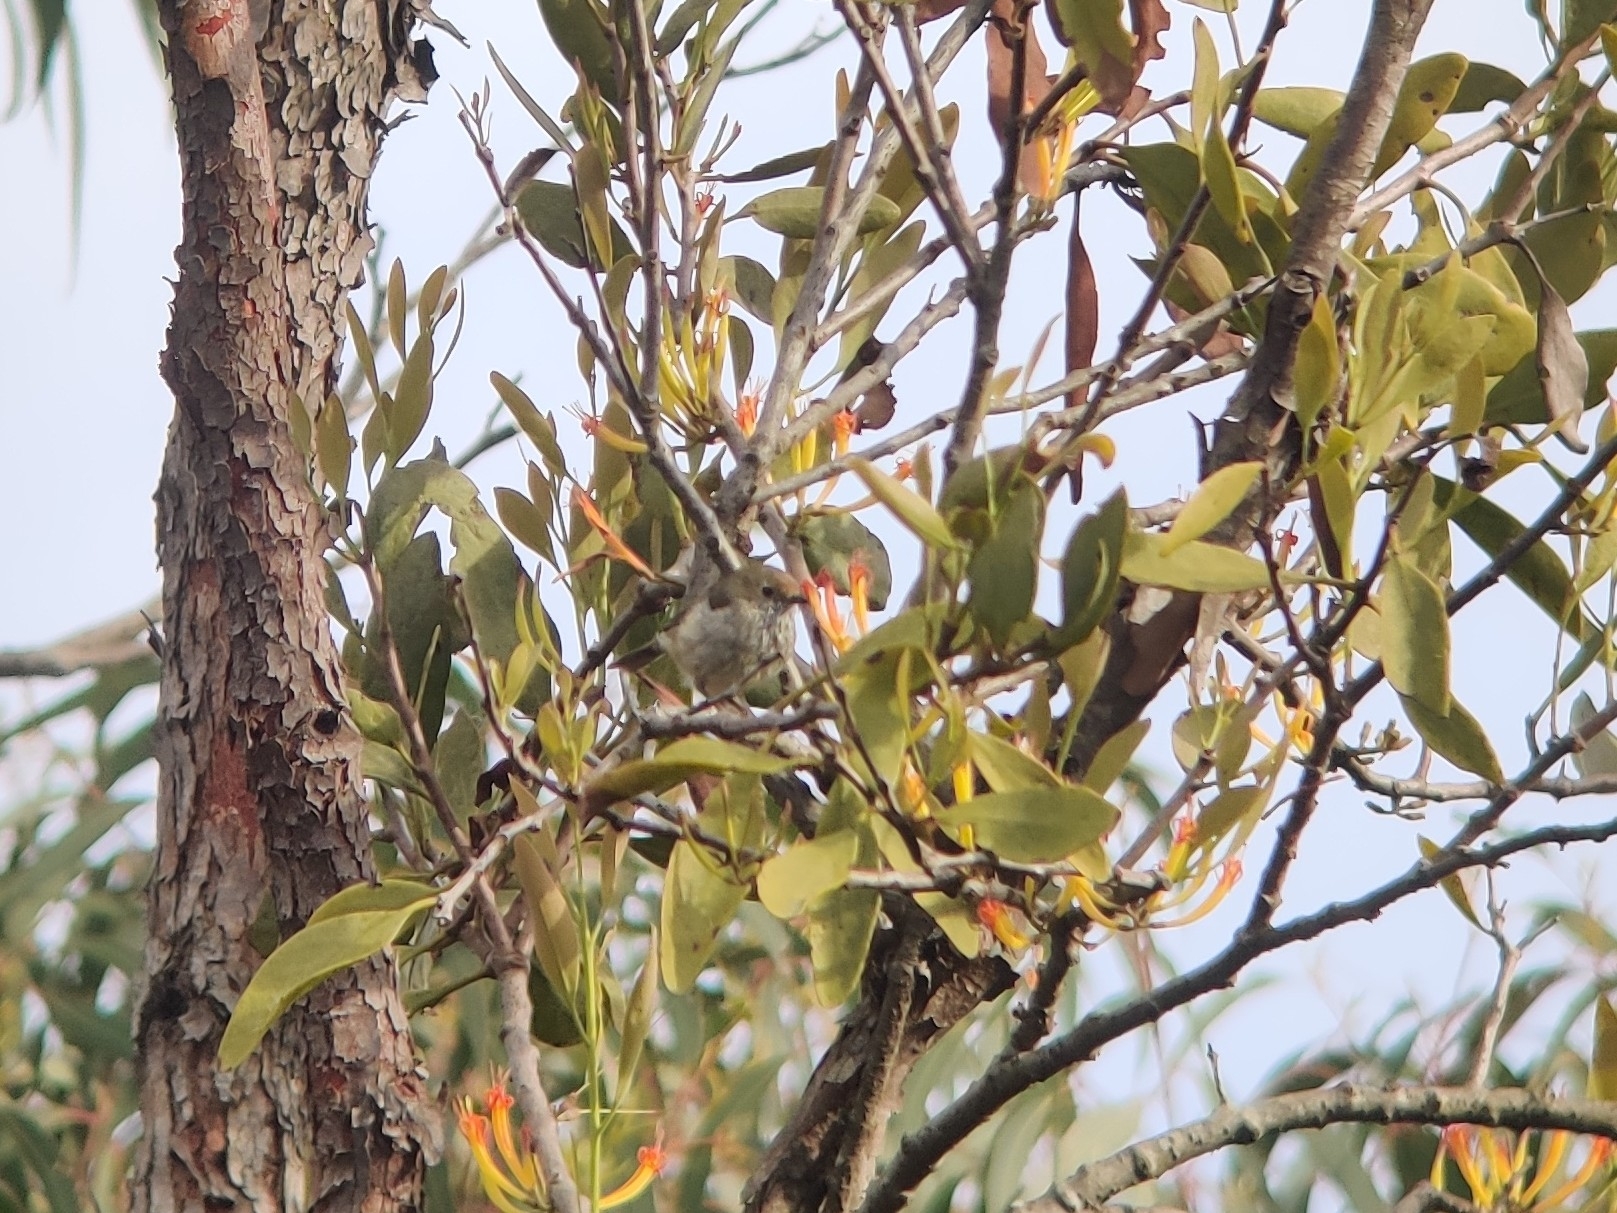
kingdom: Animalia
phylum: Chordata
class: Aves
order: Passeriformes
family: Acanthizidae
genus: Acanthiza
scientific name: Acanthiza pusilla
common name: Brown thornbill
